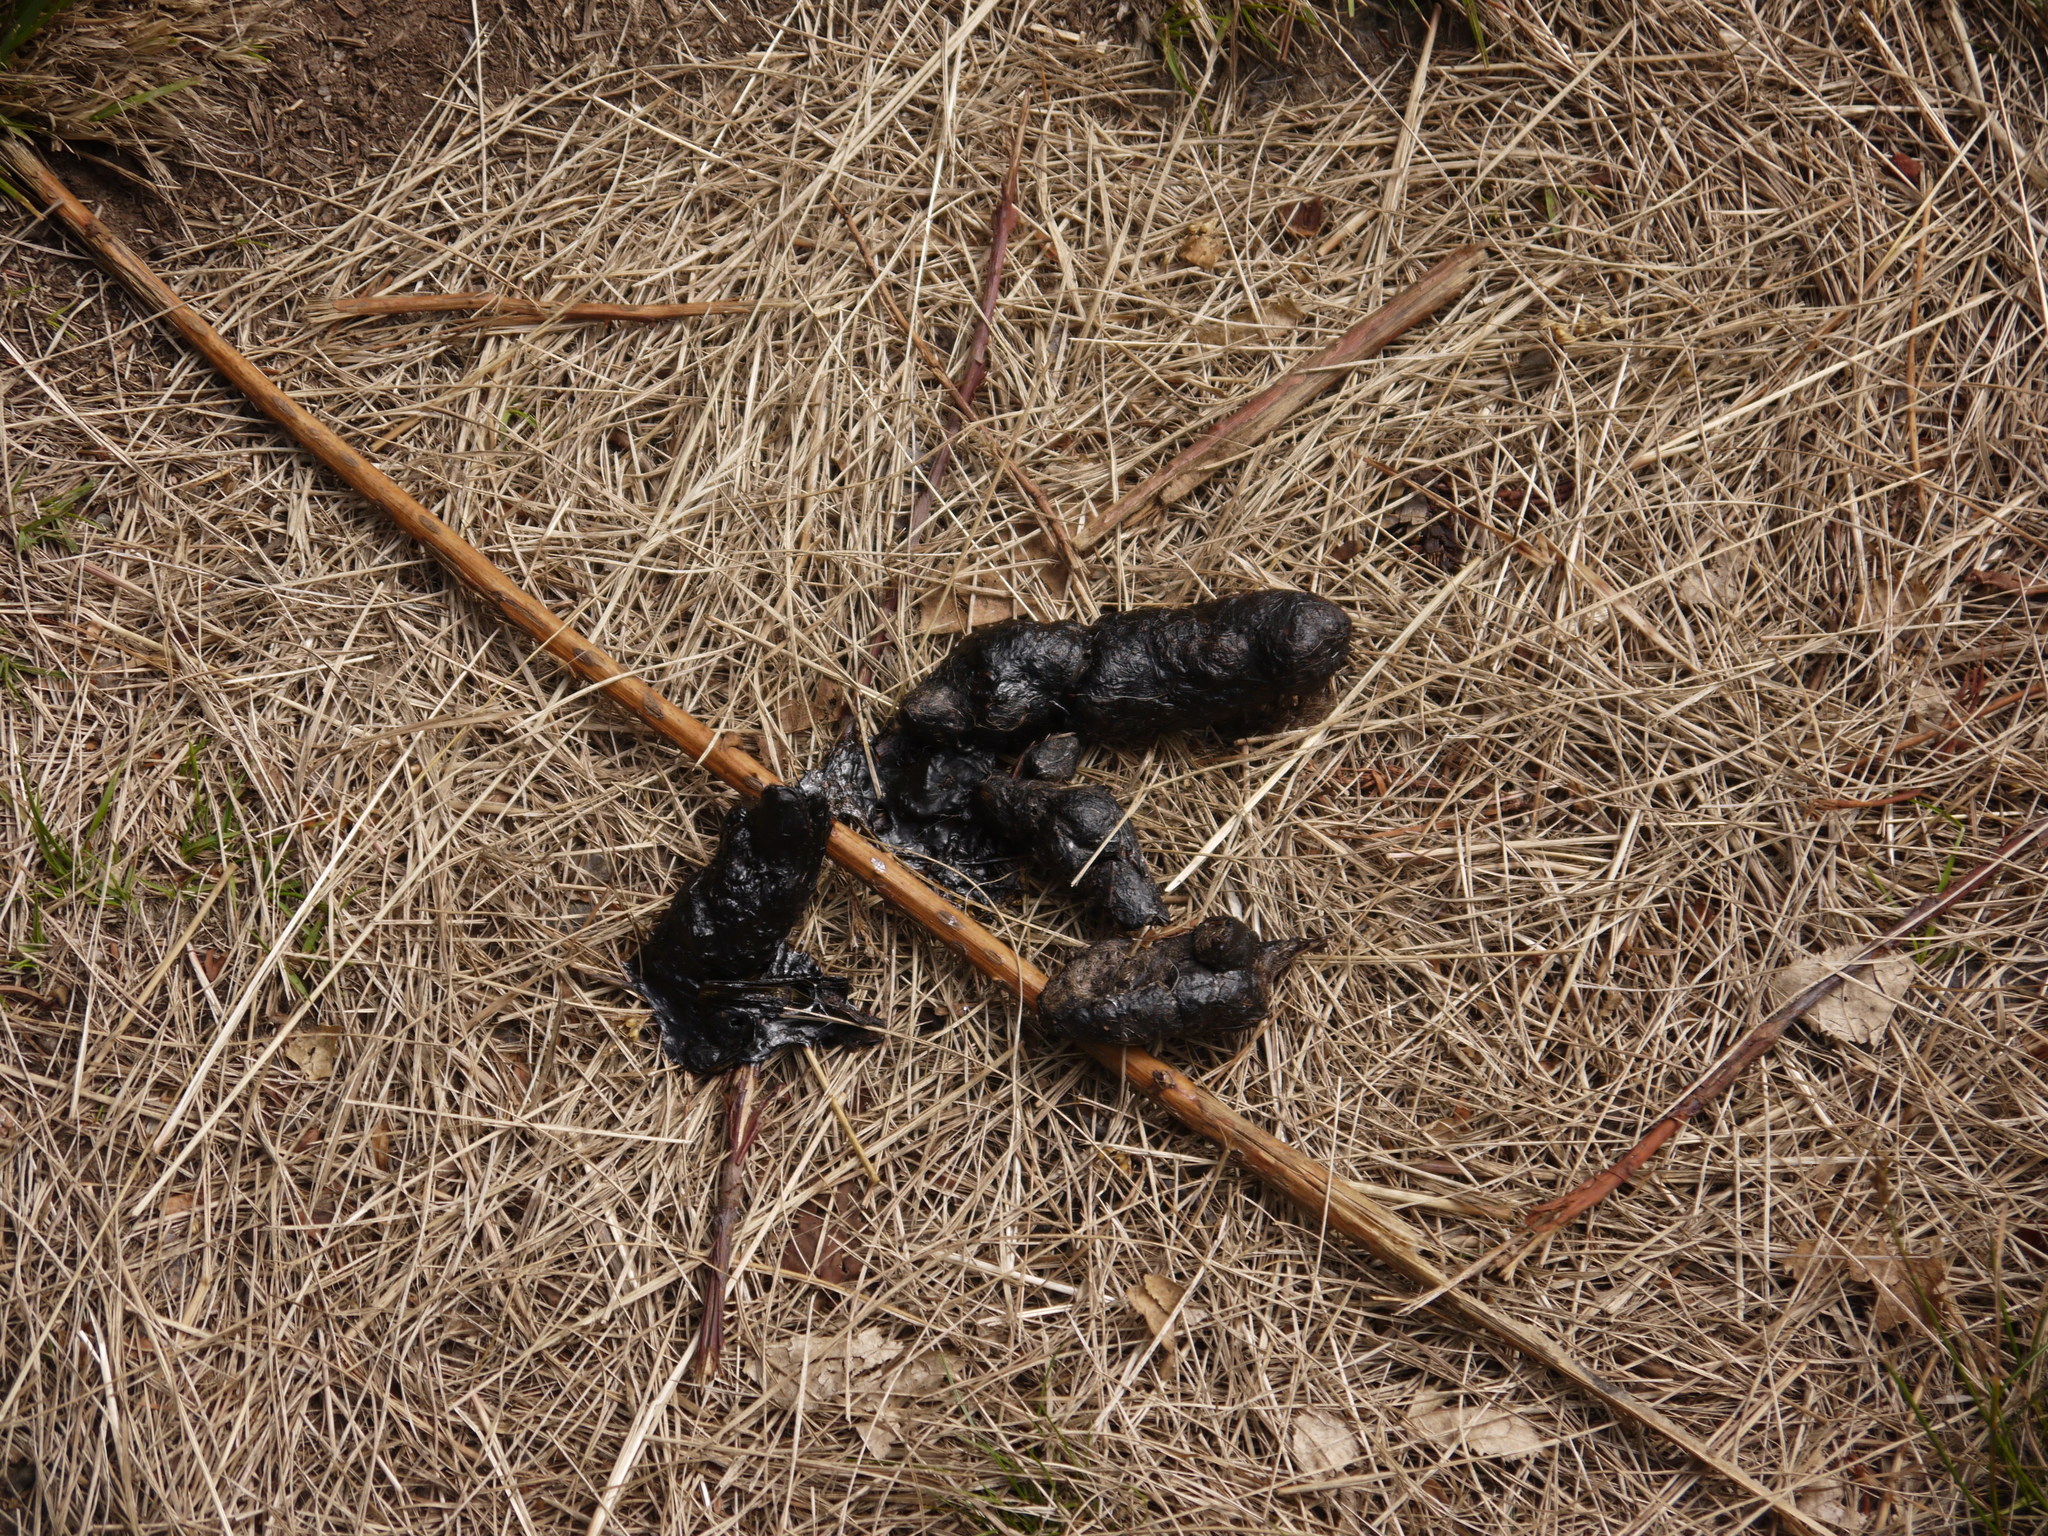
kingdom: Animalia
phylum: Chordata
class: Mammalia
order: Carnivora
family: Canidae
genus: Canis
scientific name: Canis latrans
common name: Coyote
